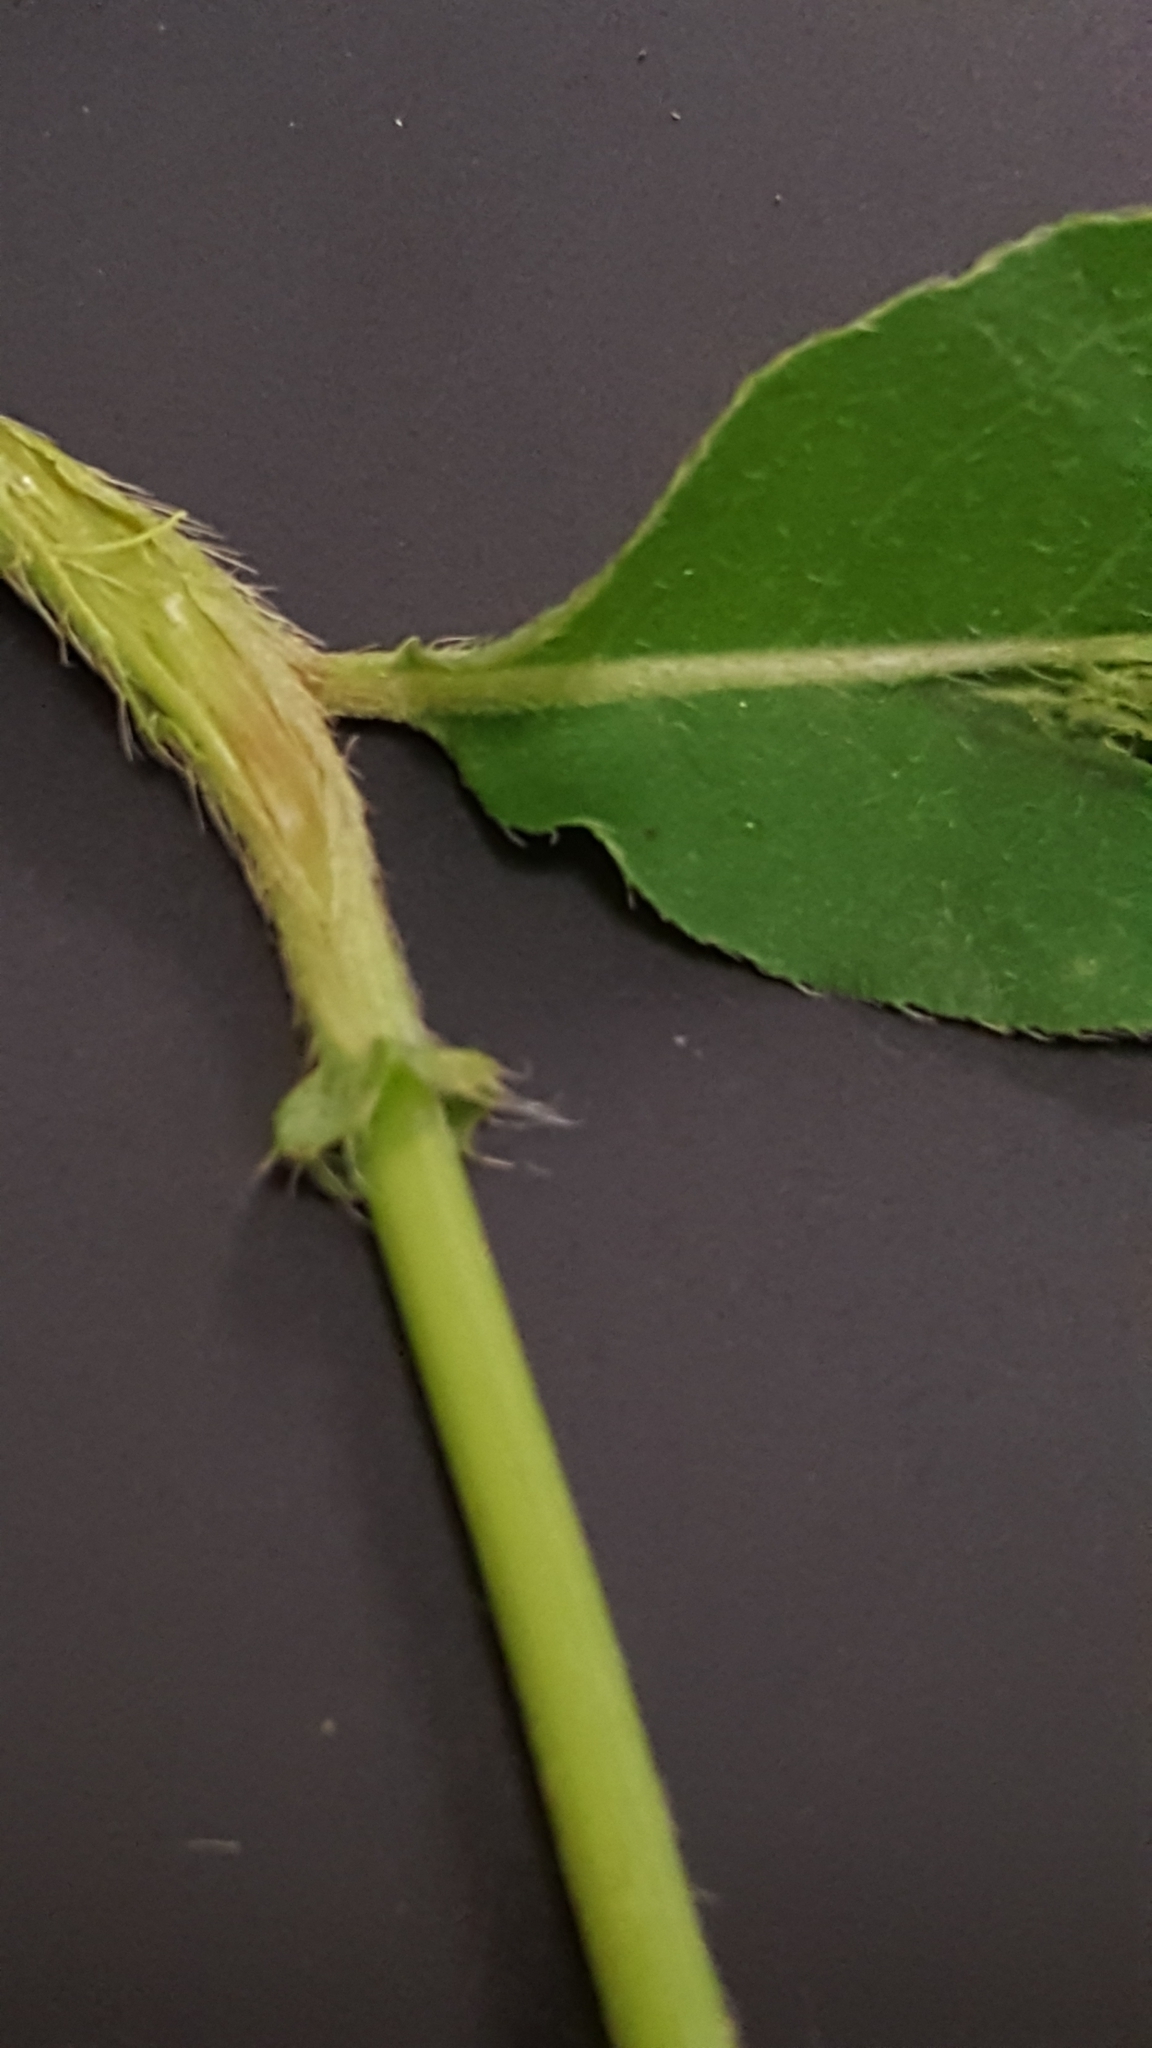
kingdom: Plantae
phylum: Tracheophyta
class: Magnoliopsida
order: Caryophyllales
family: Polygonaceae
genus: Persicaria
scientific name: Persicaria amphibia
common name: Amphibious bistort
